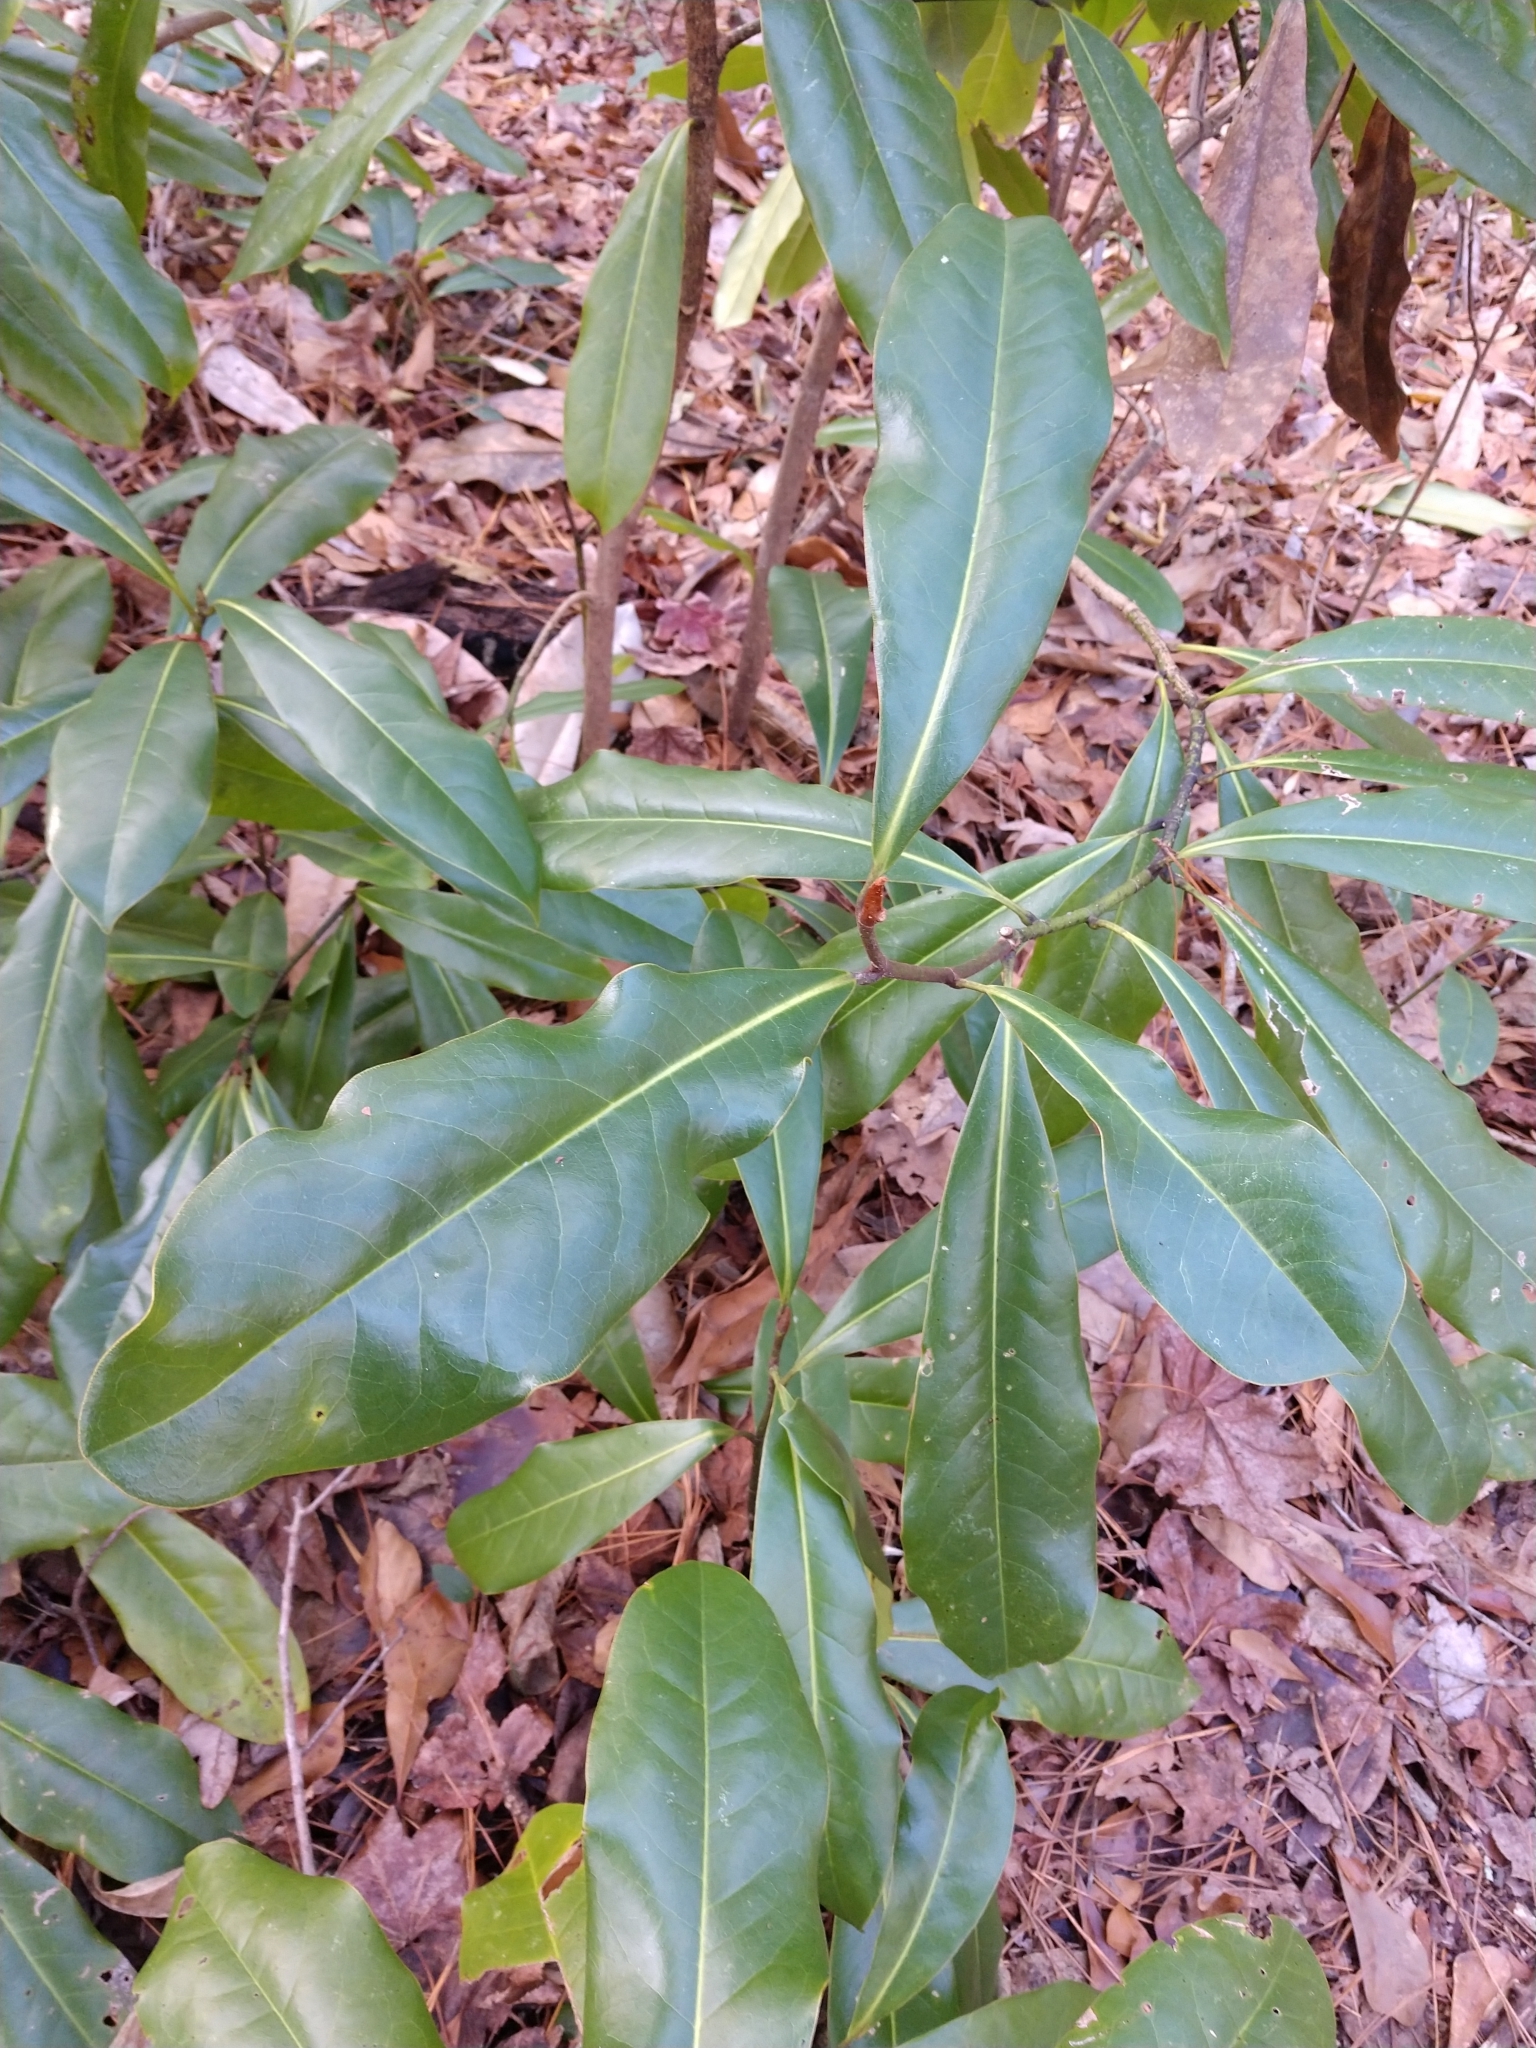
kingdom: Plantae
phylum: Tracheophyta
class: Magnoliopsida
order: Magnoliales
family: Magnoliaceae
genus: Magnolia
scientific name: Magnolia grandiflora
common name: Southern magnolia
